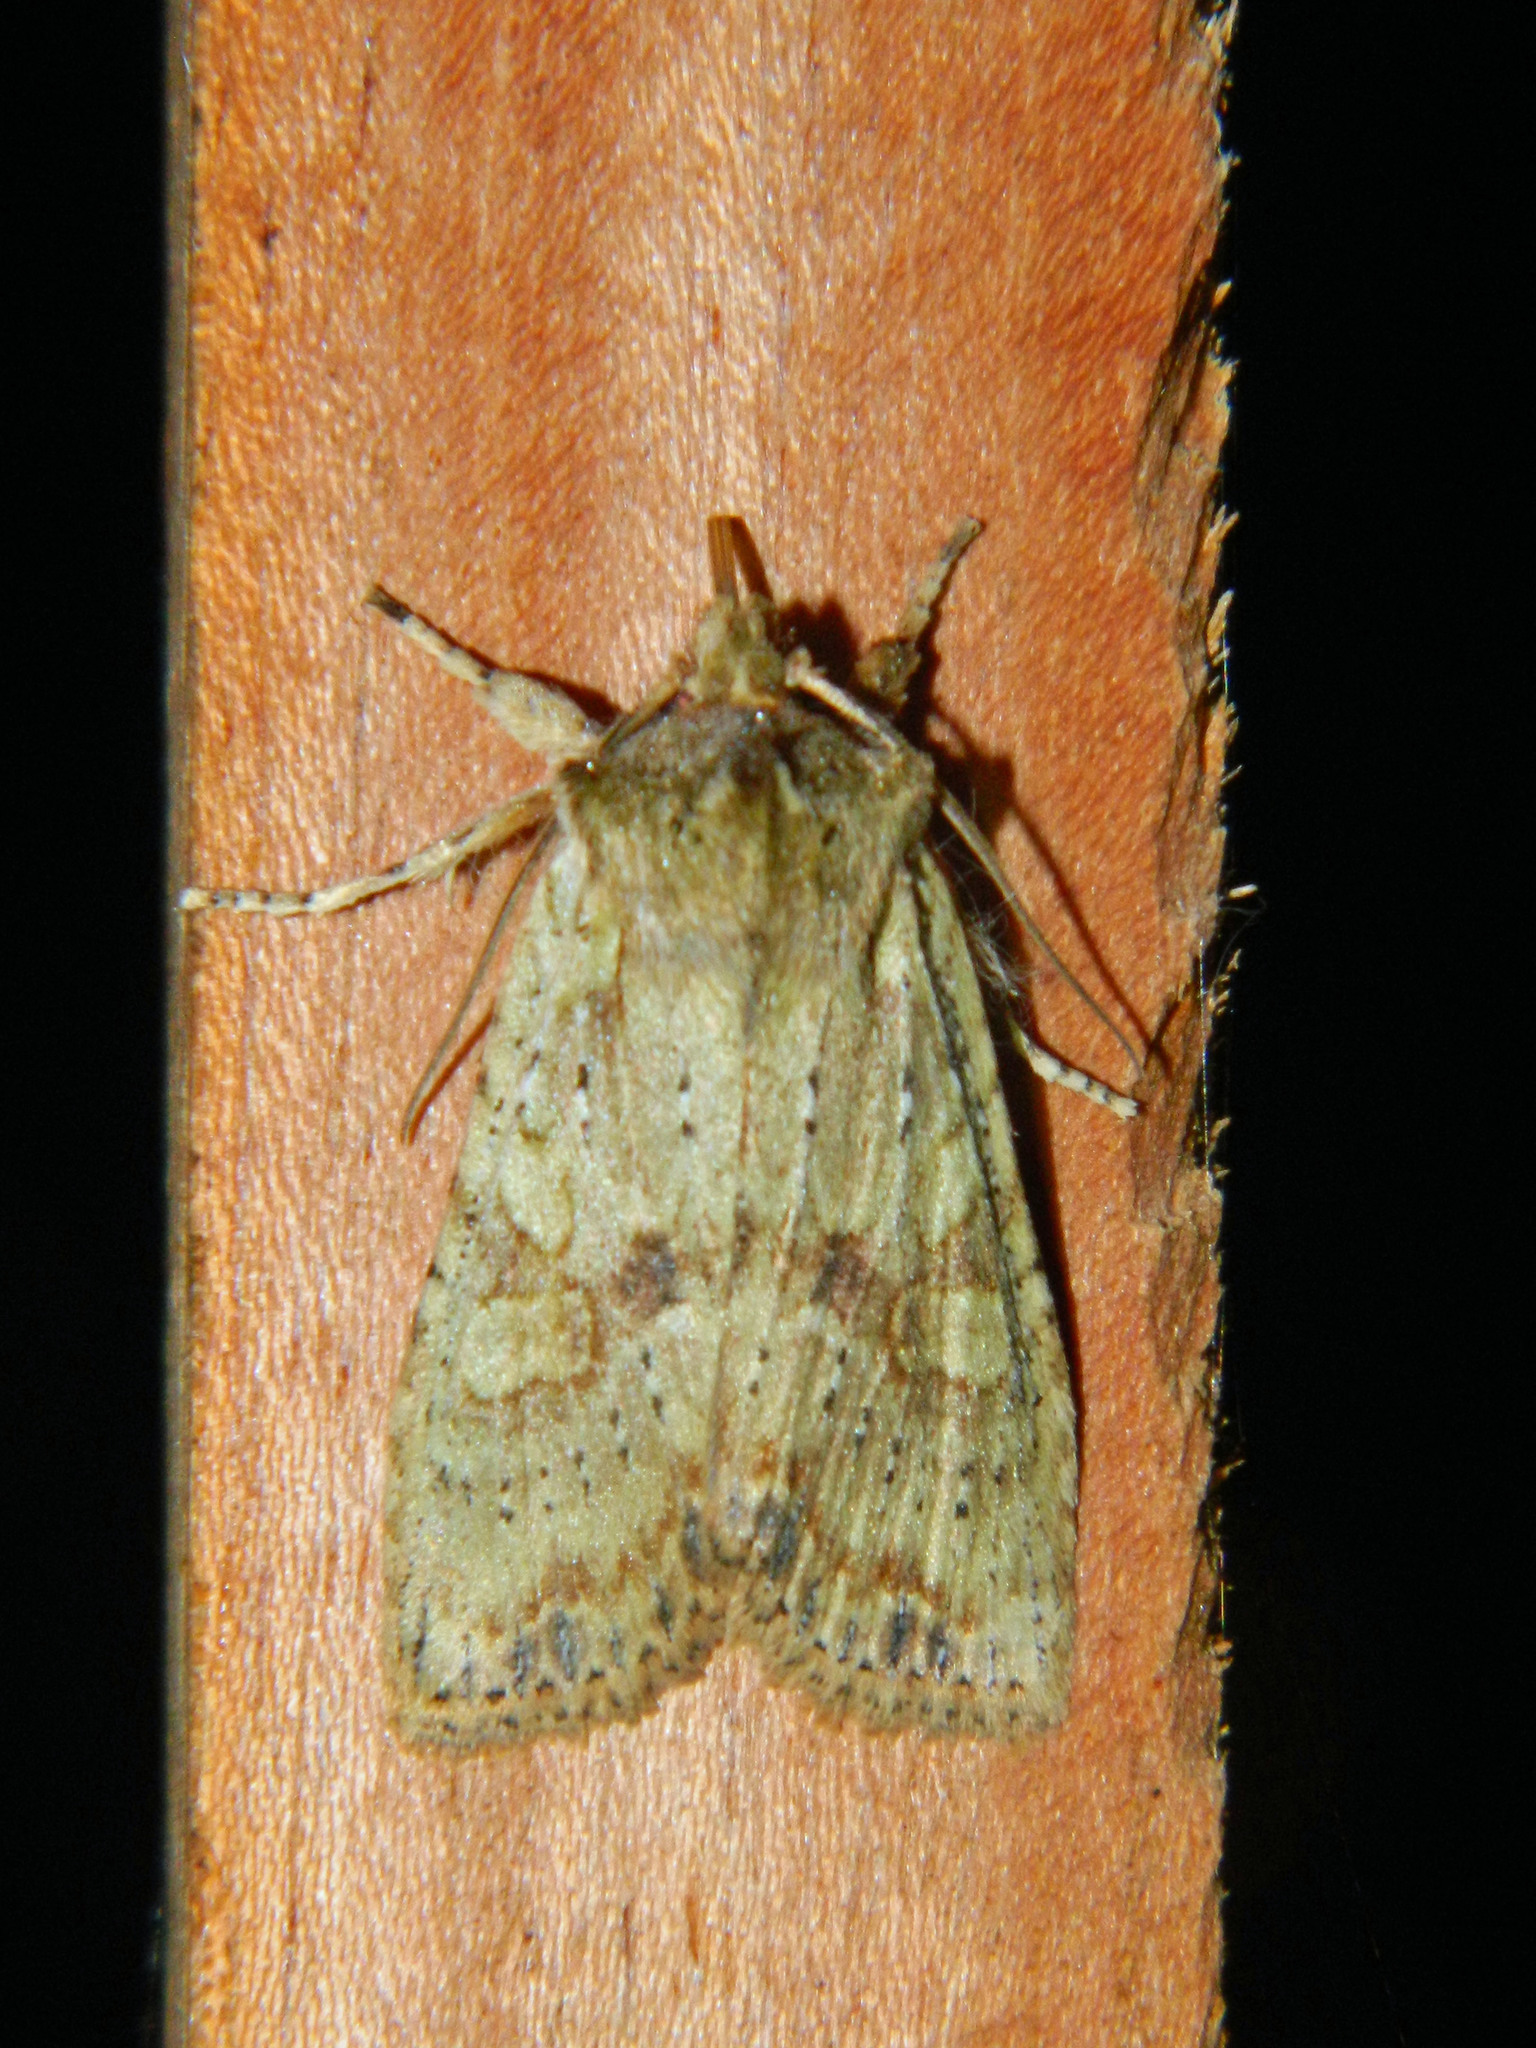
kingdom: Animalia
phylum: Arthropoda
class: Insecta
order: Lepidoptera
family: Noctuidae
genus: Lithophane
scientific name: Lithophane innominata
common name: Nameless pinion moth
